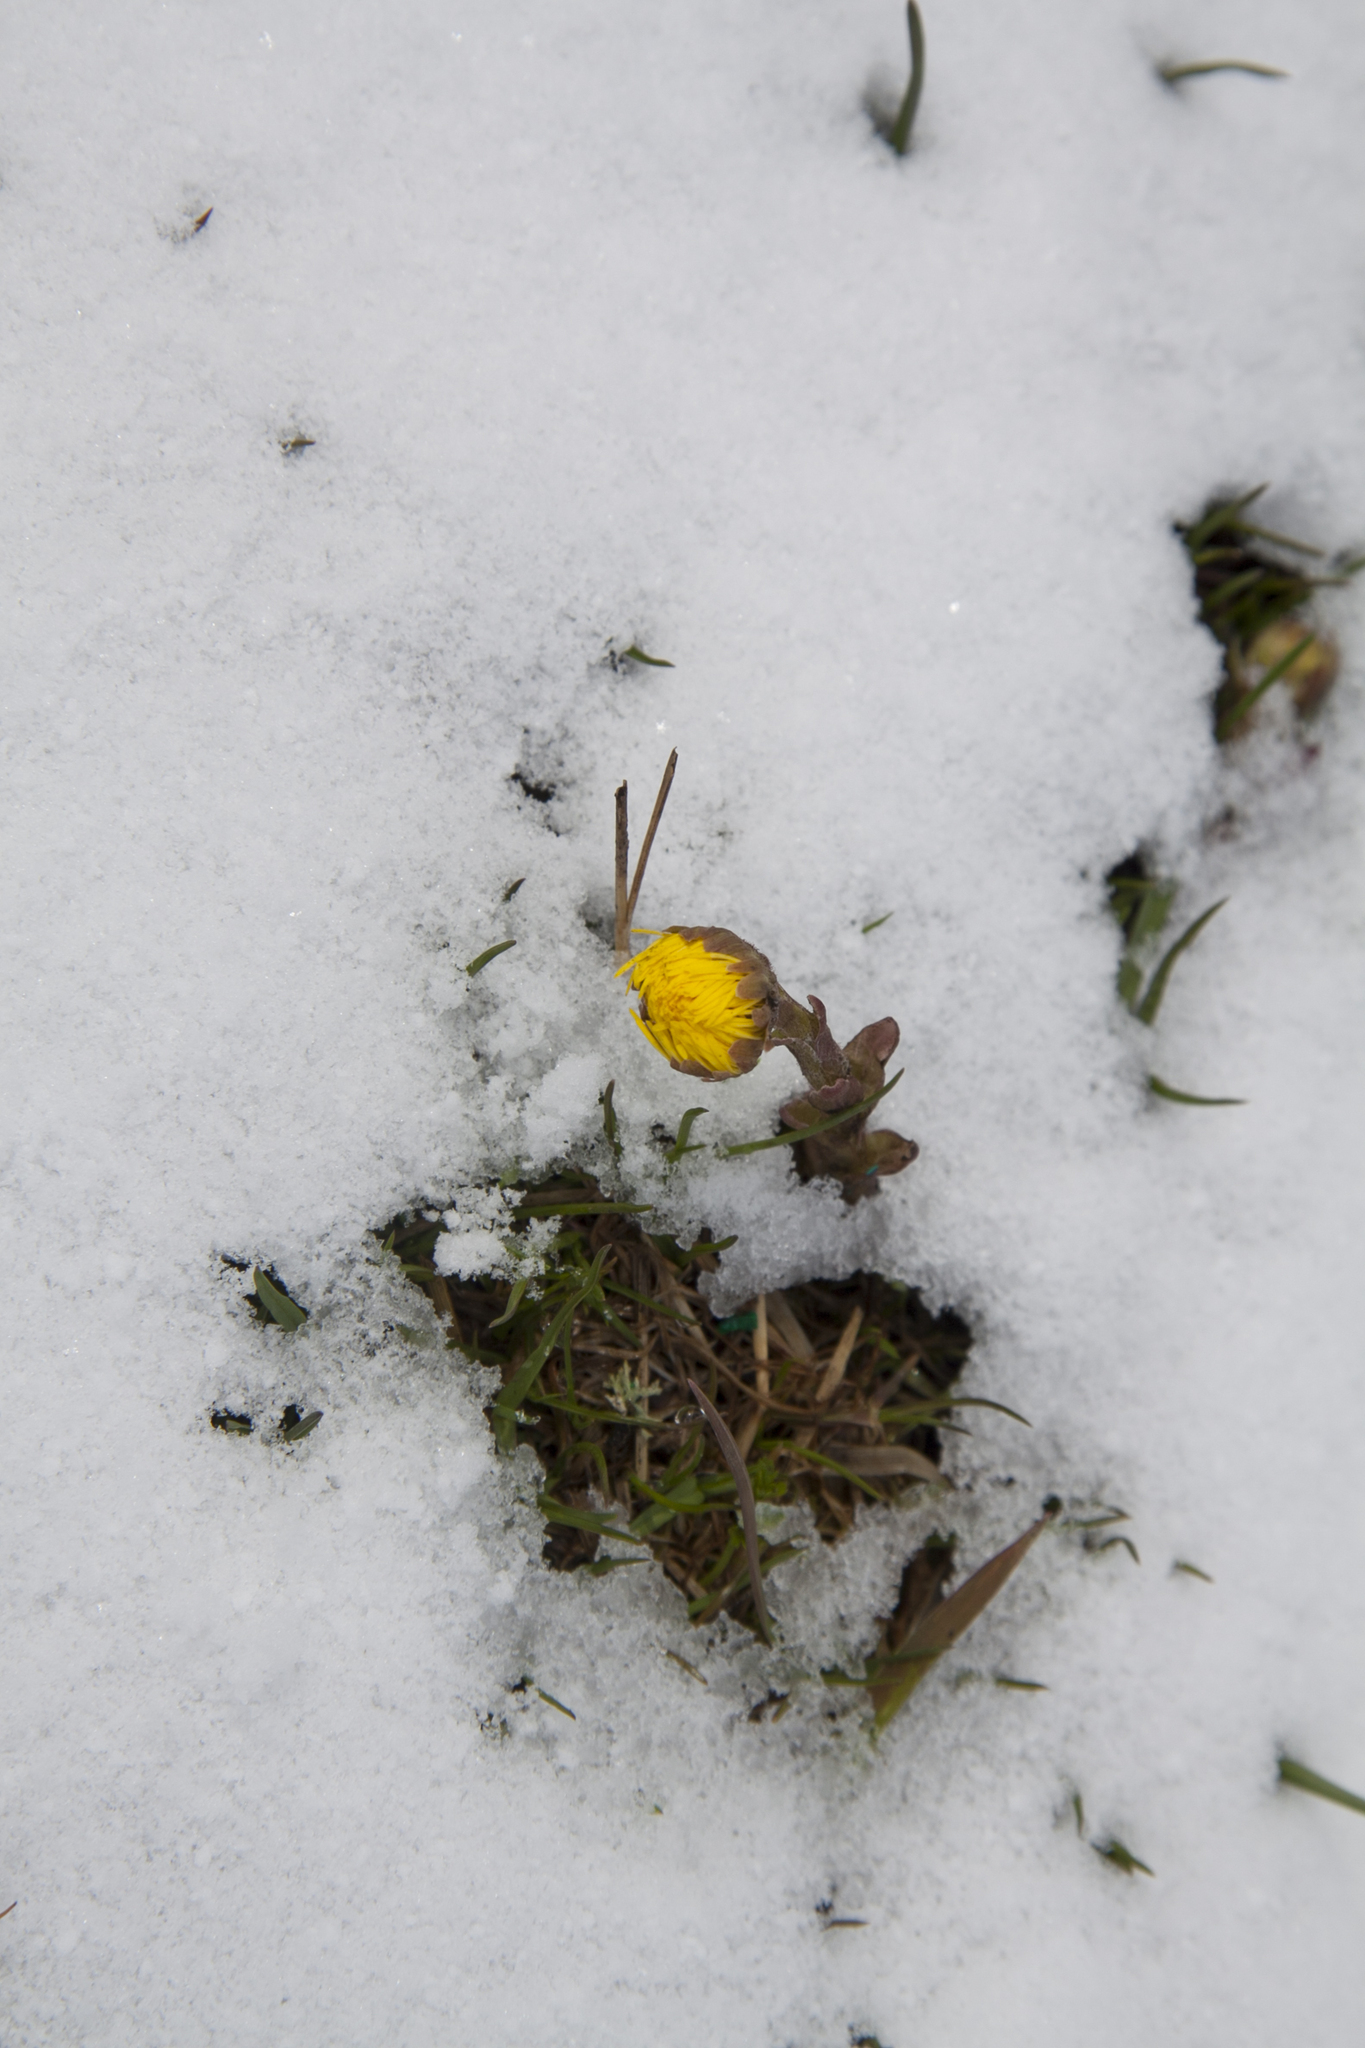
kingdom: Plantae
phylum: Tracheophyta
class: Magnoliopsida
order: Asterales
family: Asteraceae
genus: Tussilago
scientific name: Tussilago farfara
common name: Coltsfoot
